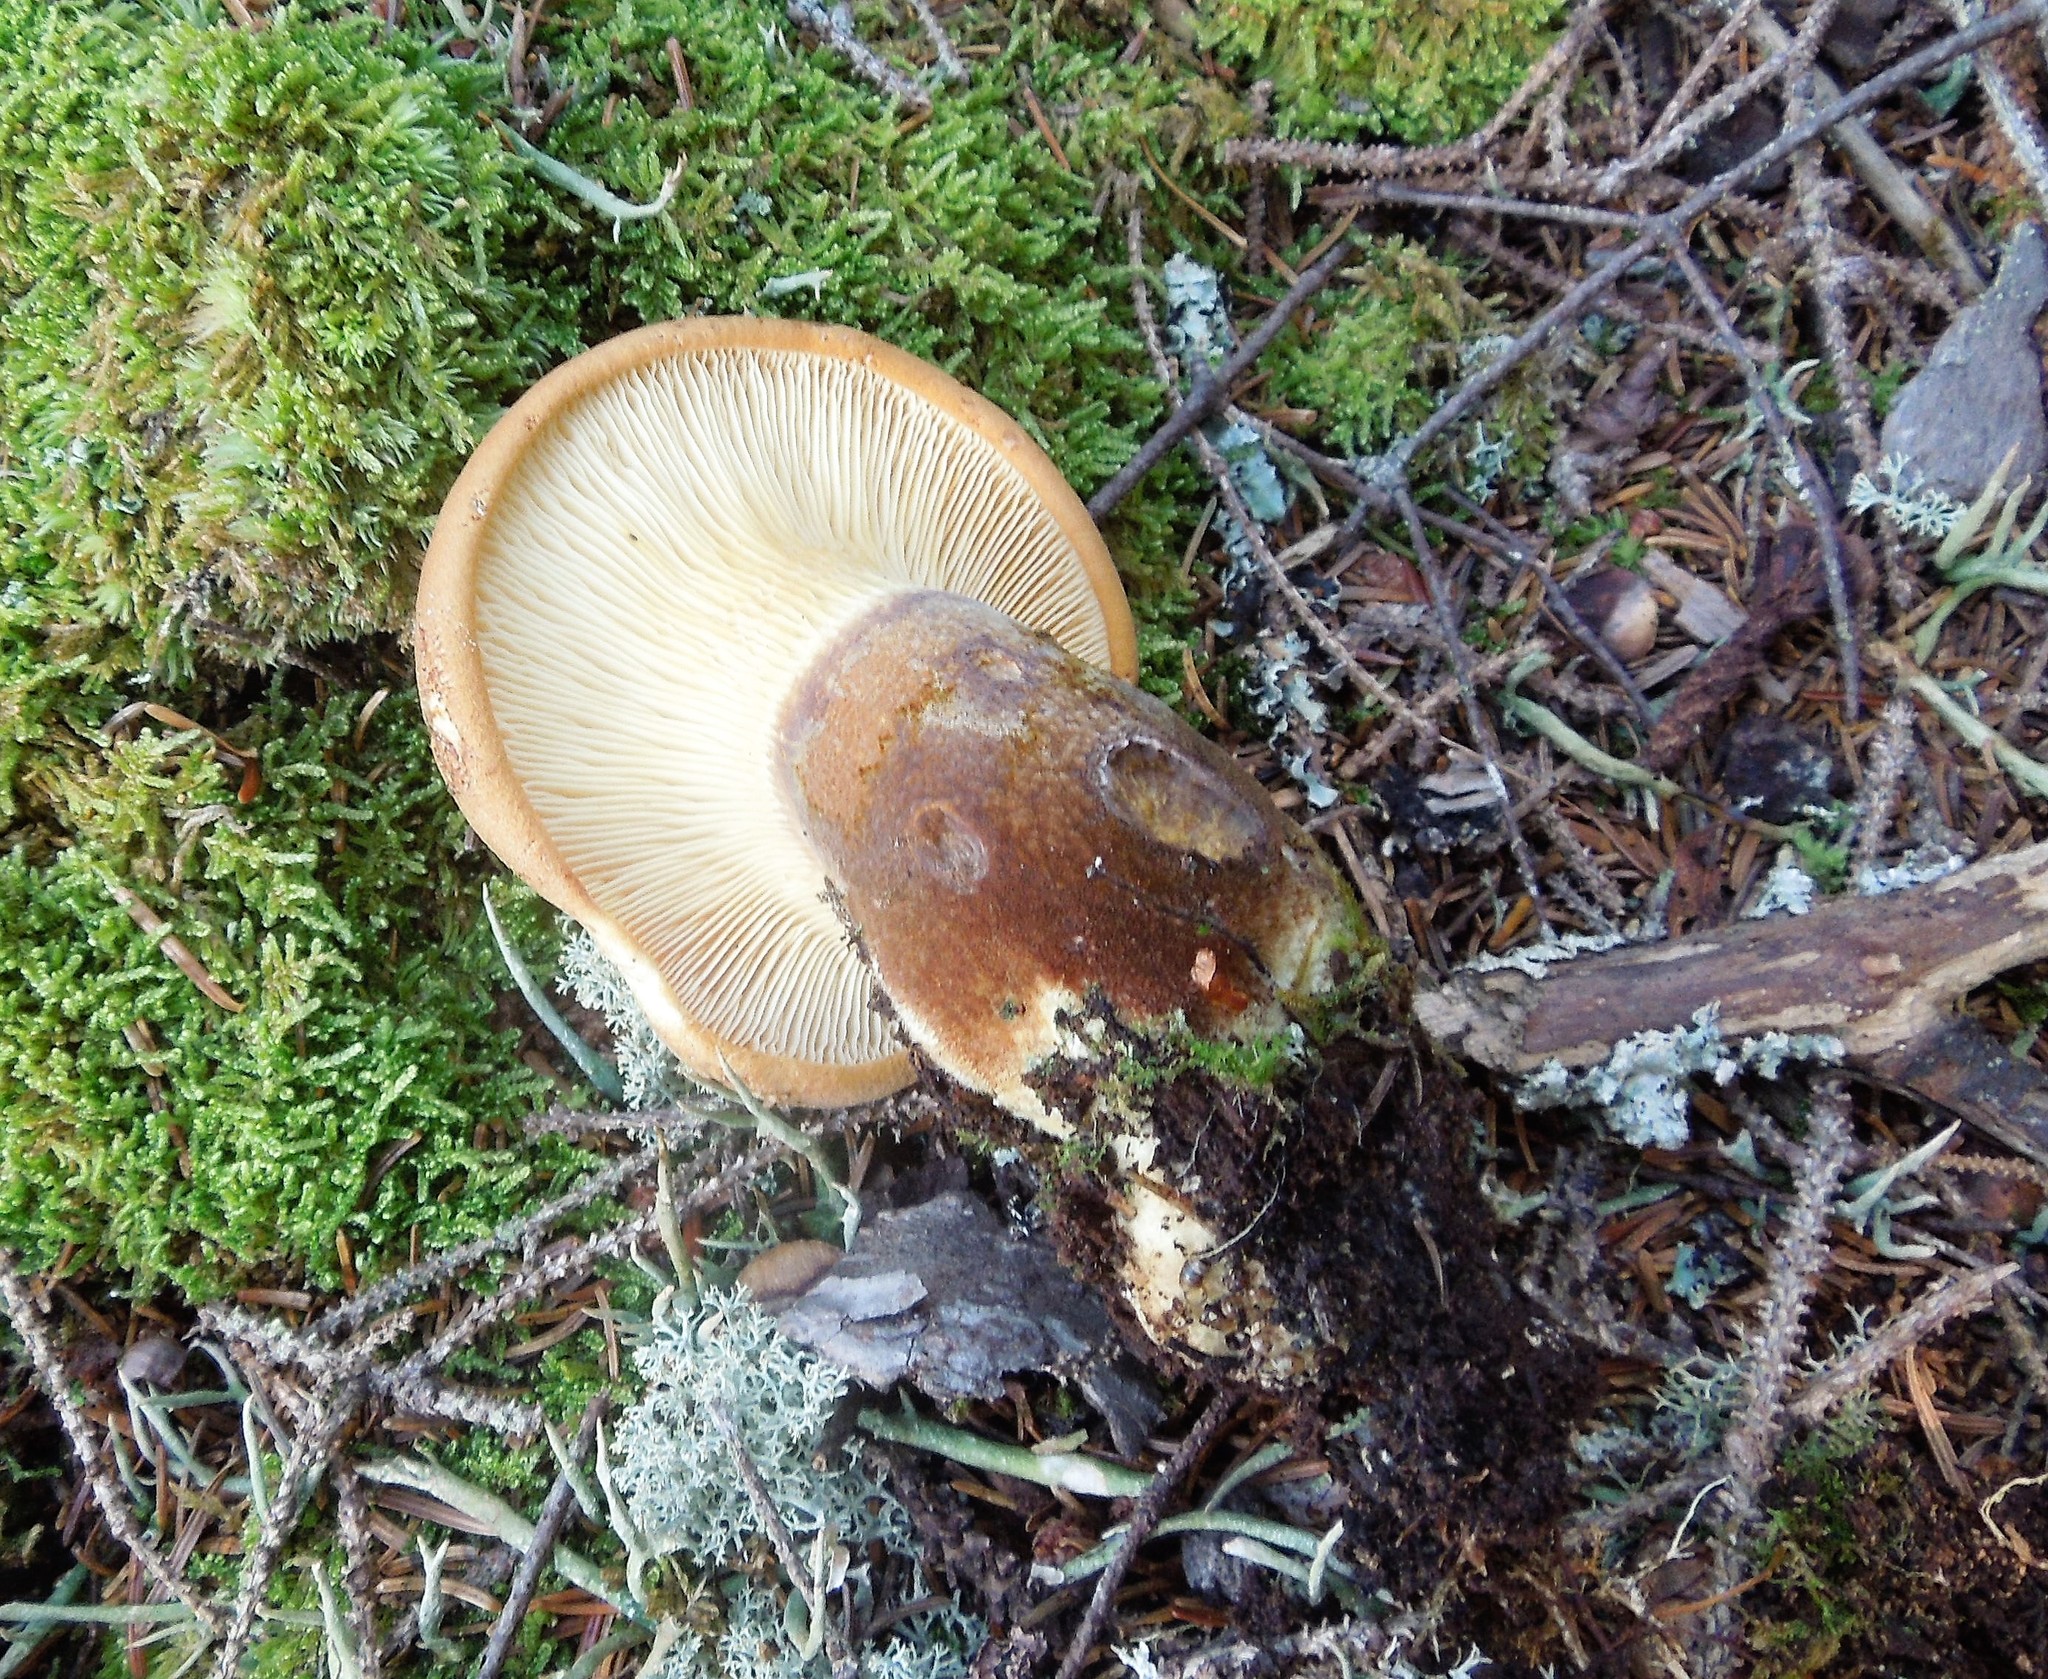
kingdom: Fungi
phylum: Basidiomycota
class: Agaricomycetes
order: Boletales
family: Tapinellaceae
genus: Tapinella
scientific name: Tapinella atrotomentosa
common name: Velvet rollrim
